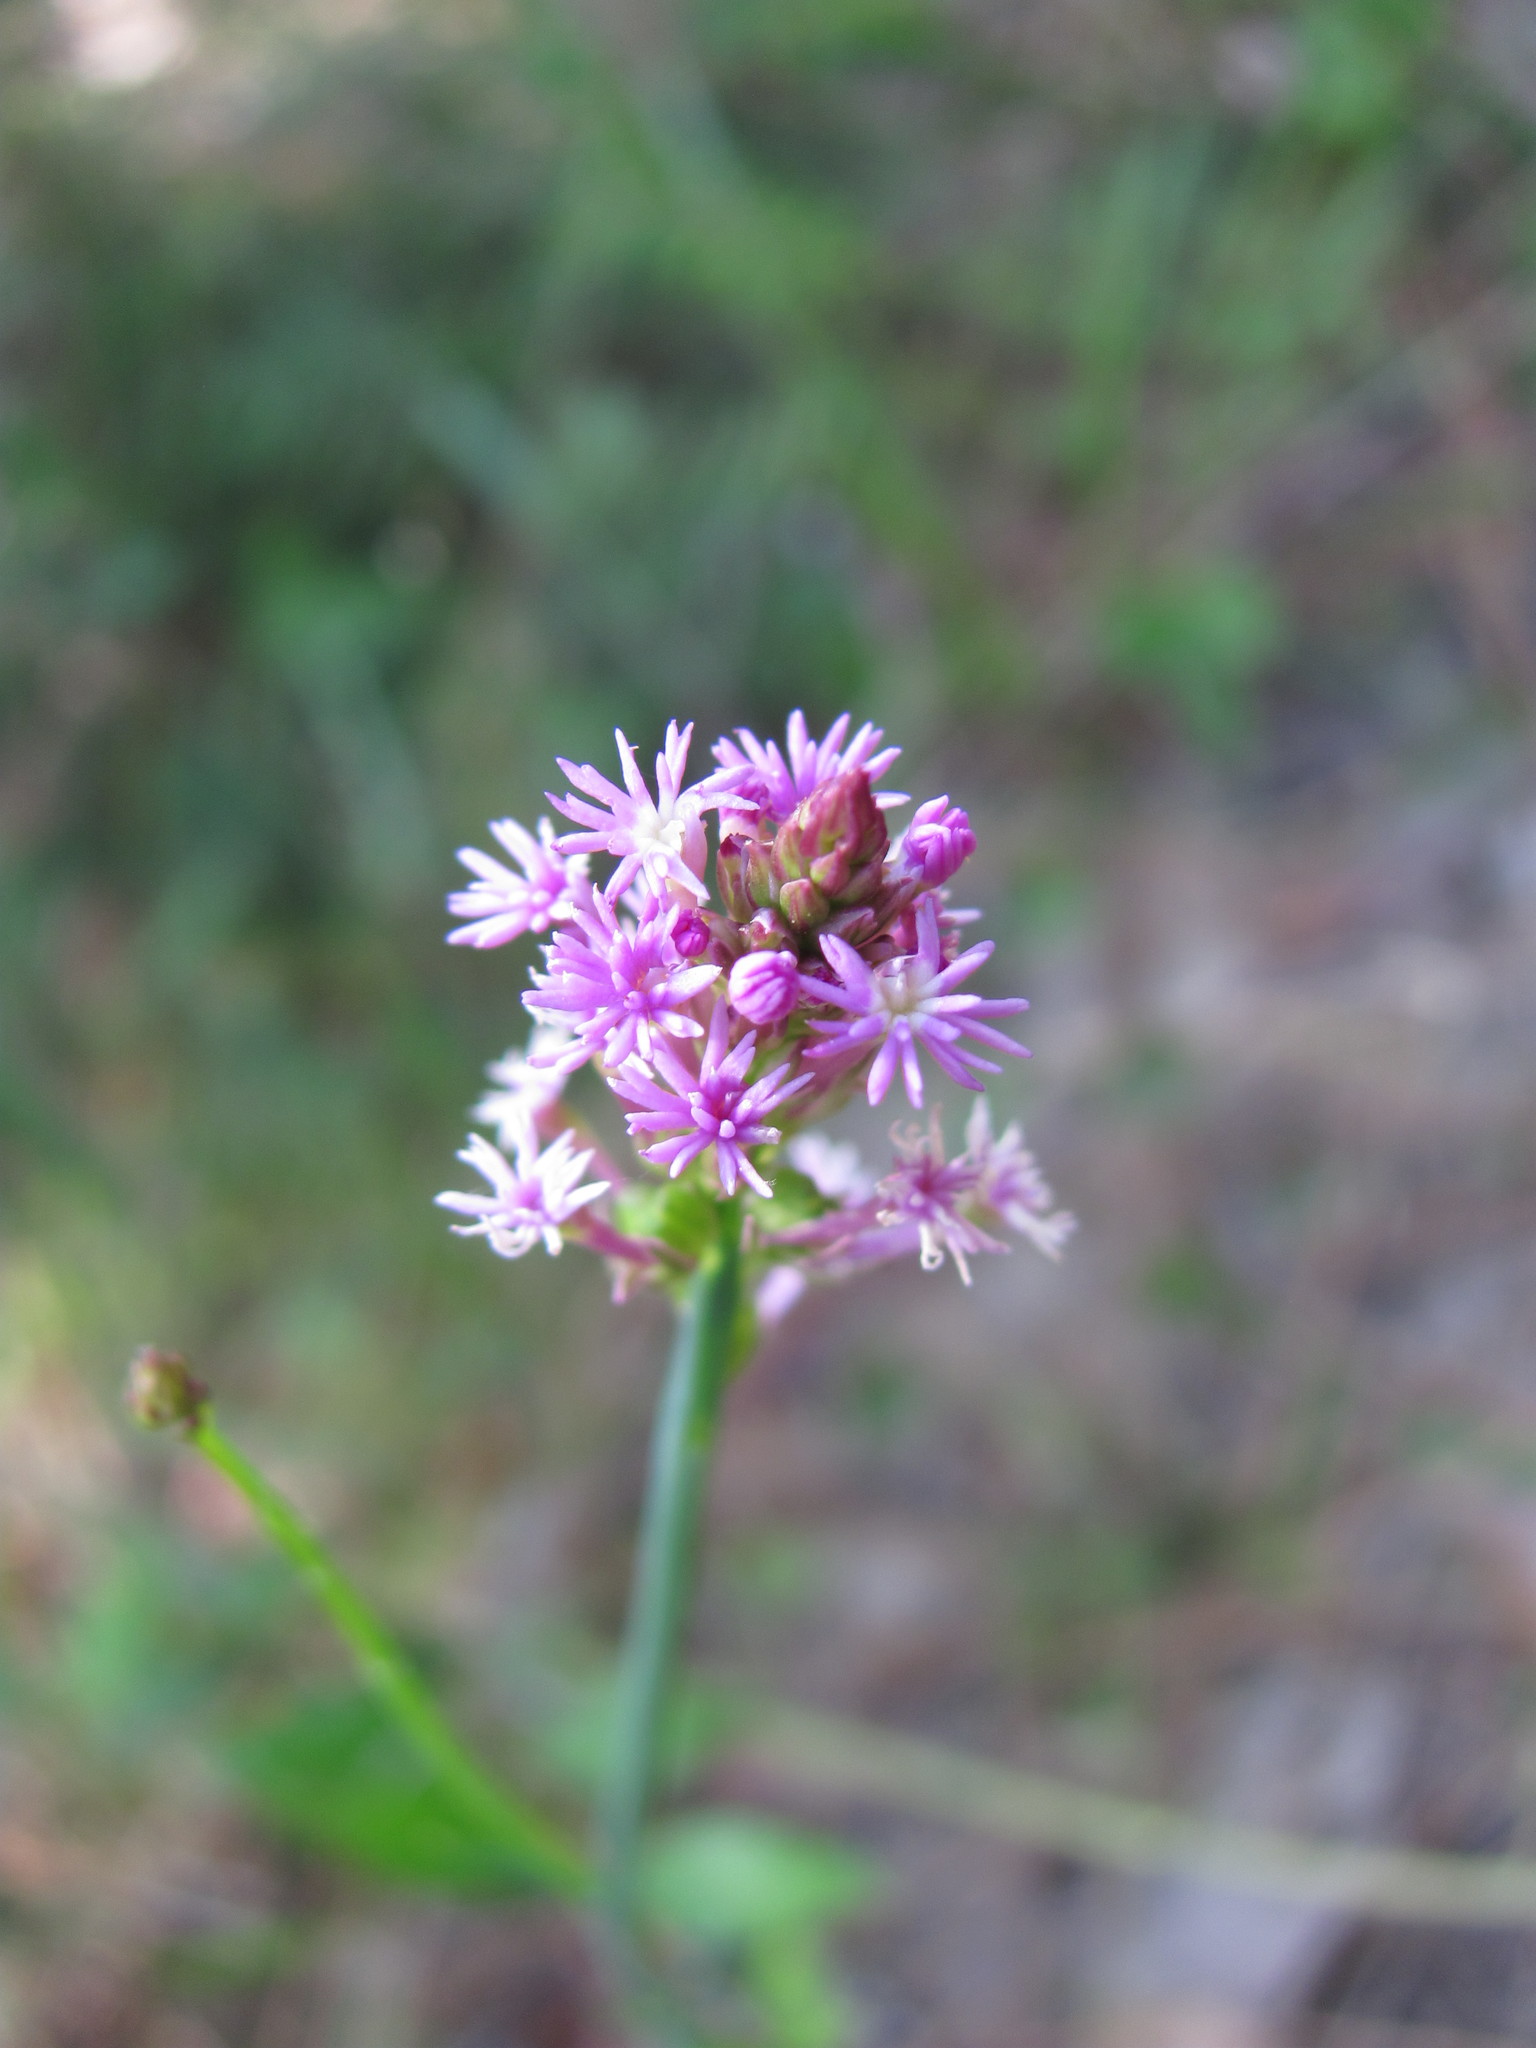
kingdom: Plantae
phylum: Tracheophyta
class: Magnoliopsida
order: Fabales
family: Polygalaceae
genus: Polygala
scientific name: Polygala incarnata
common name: Pink milkwort
